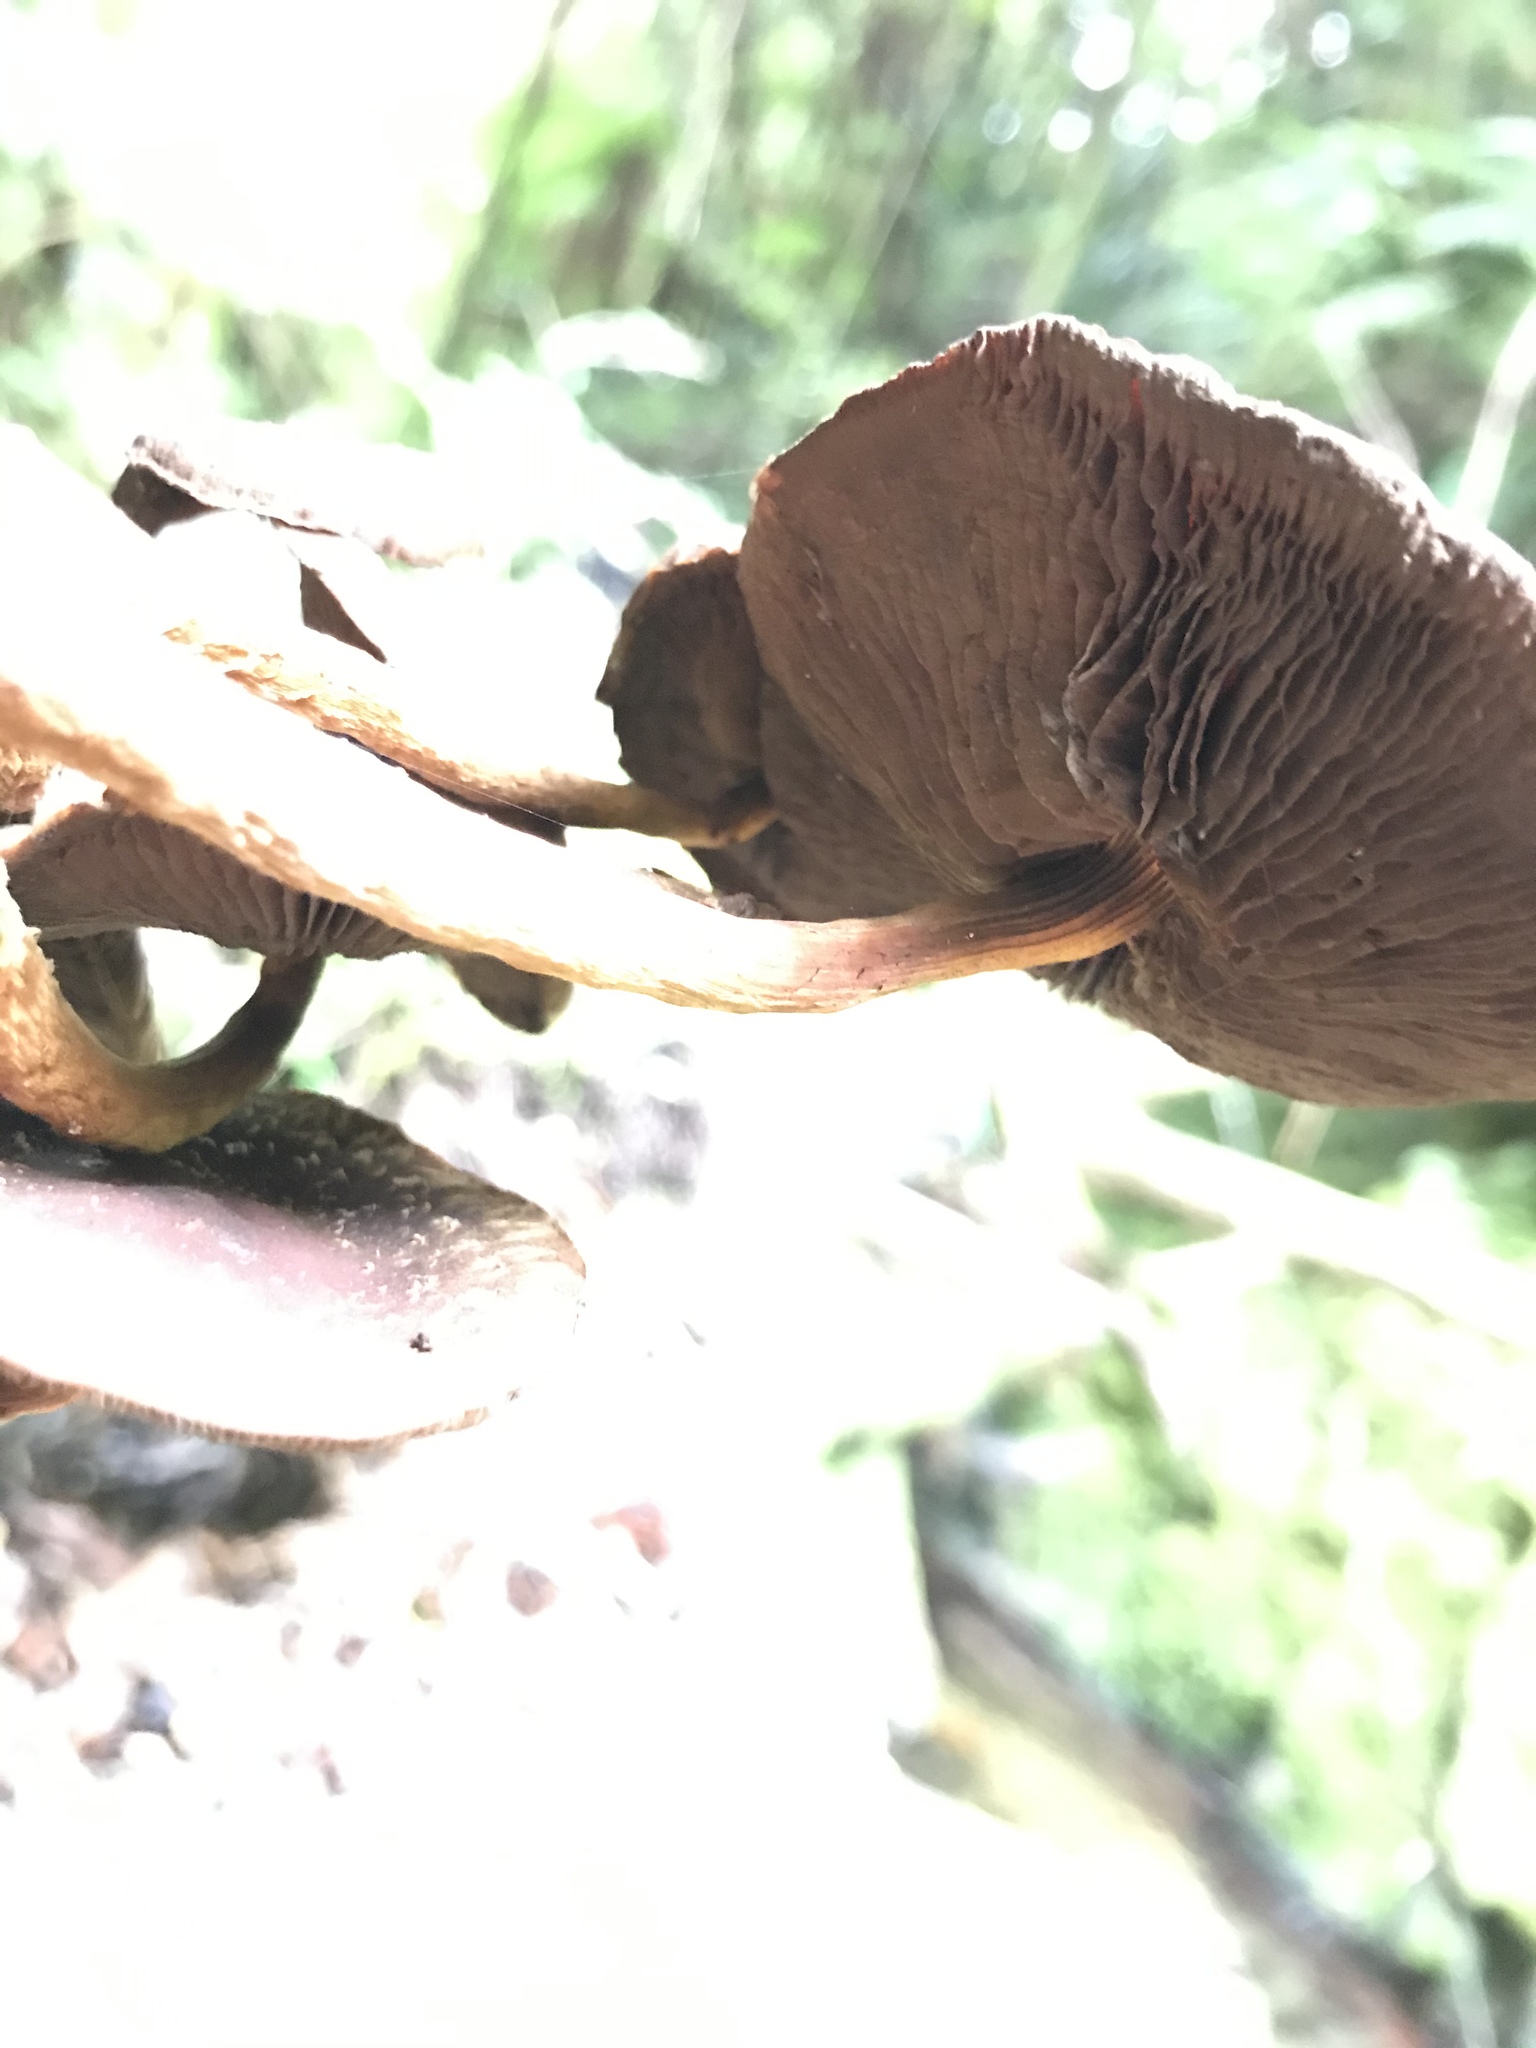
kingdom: Fungi
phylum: Basidiomycota
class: Agaricomycetes
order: Agaricales
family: Strophariaceae
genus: Hypholoma
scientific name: Hypholoma brunneum
